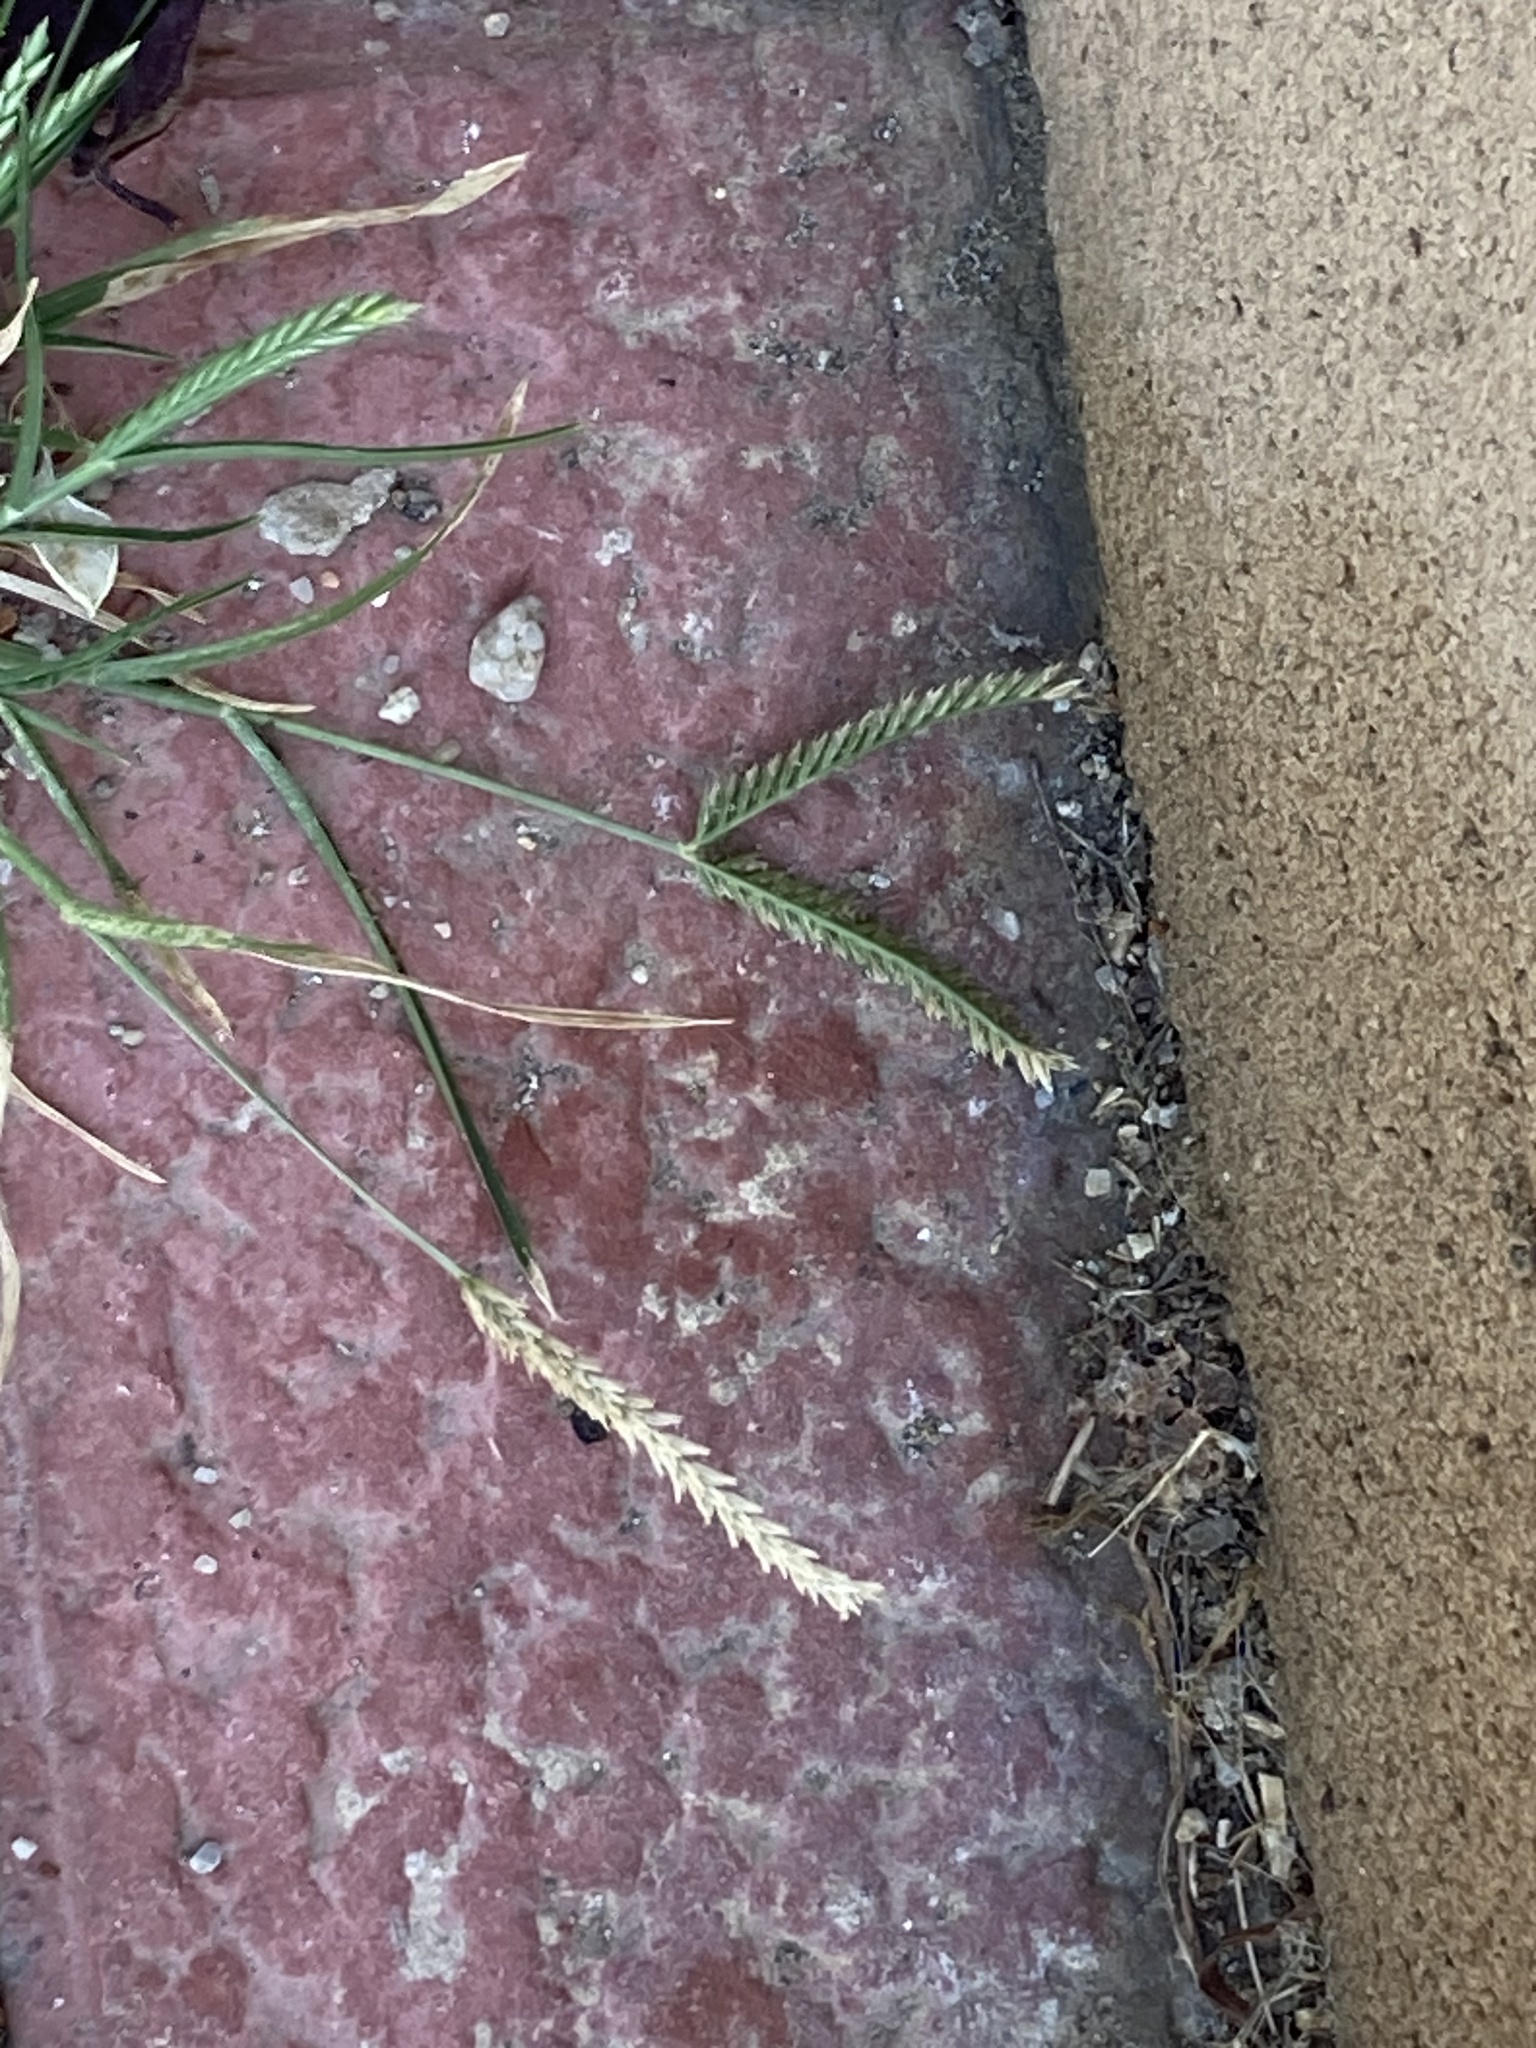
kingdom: Plantae
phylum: Tracheophyta
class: Liliopsida
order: Poales
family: Poaceae
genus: Eleusine
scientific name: Eleusine indica
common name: Yard-grass
